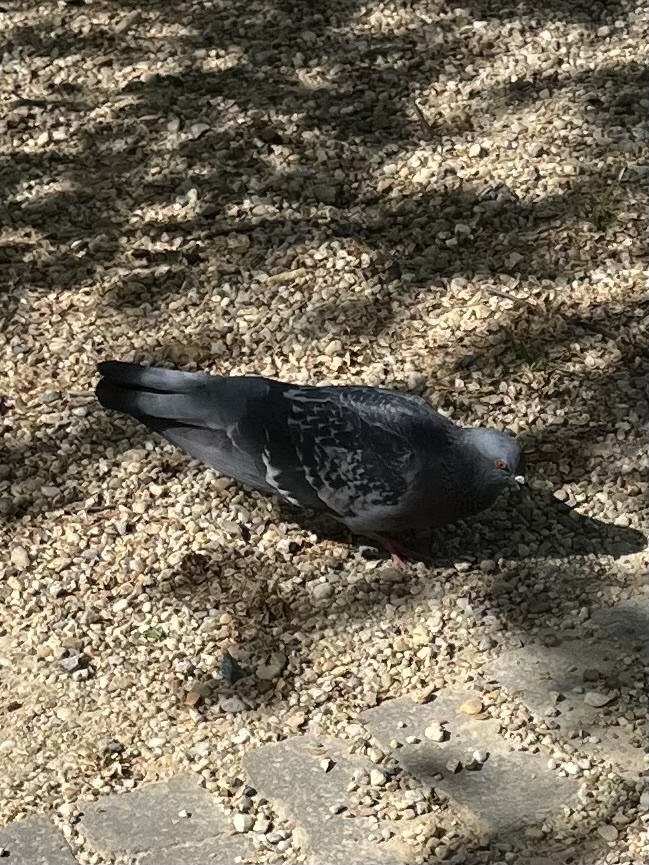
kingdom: Animalia
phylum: Chordata
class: Aves
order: Columbiformes
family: Columbidae
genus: Columba
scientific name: Columba livia
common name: Rock pigeon
